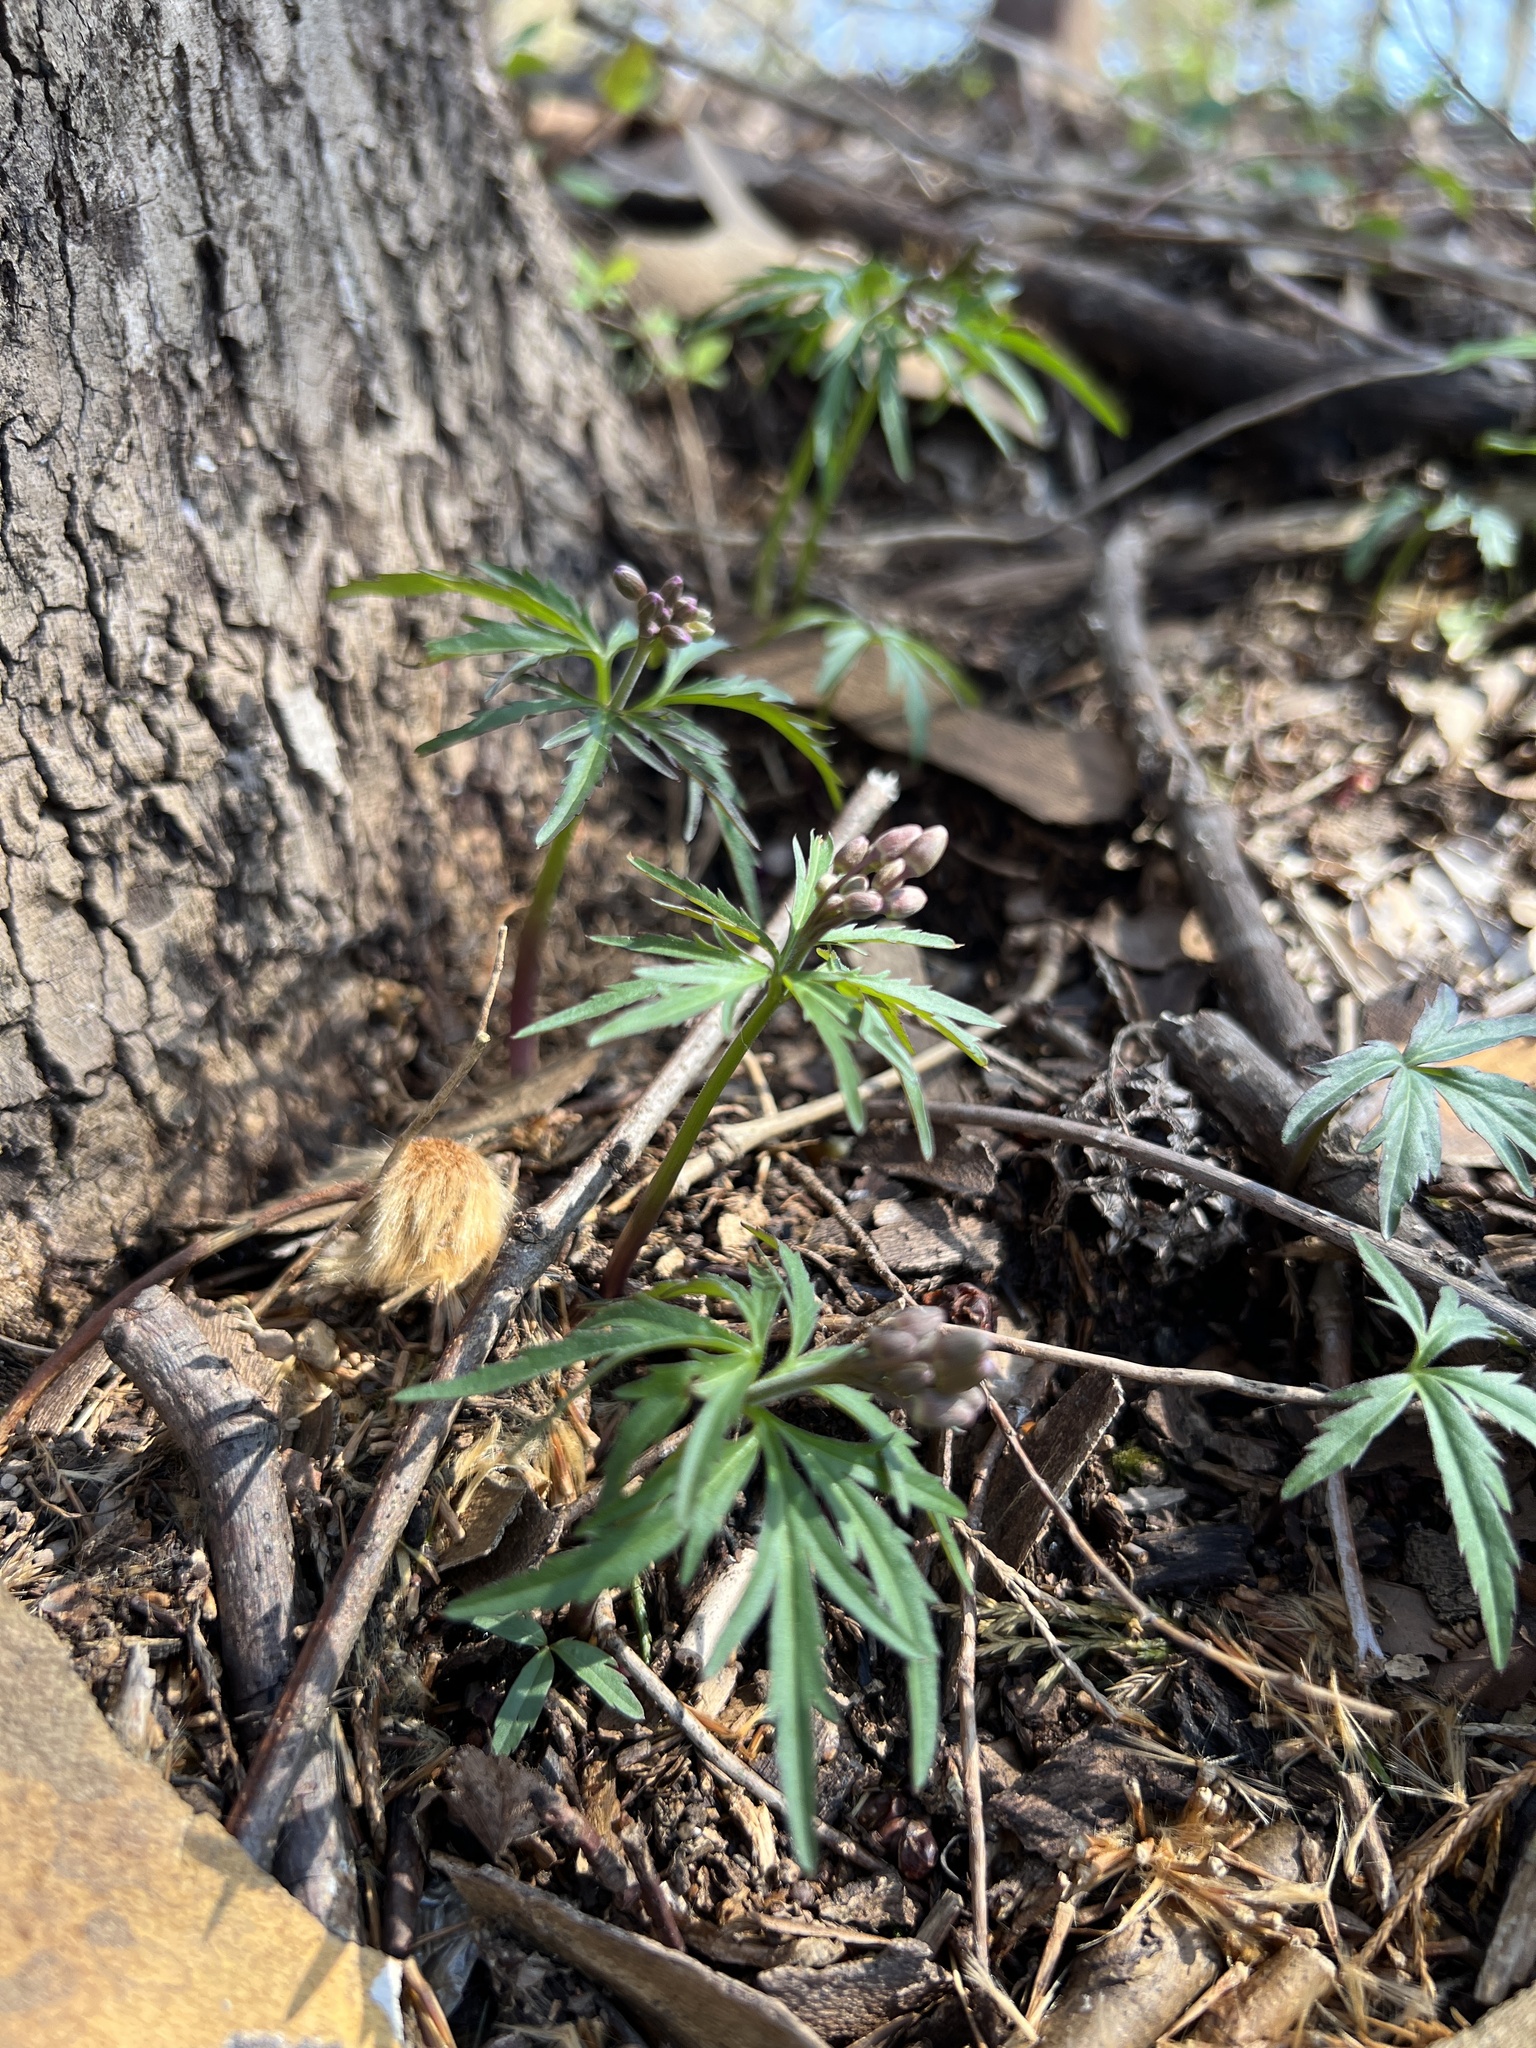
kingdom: Plantae
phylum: Tracheophyta
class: Magnoliopsida
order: Brassicales
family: Brassicaceae
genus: Cardamine
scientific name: Cardamine concatenata
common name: Cut-leaf toothcup
